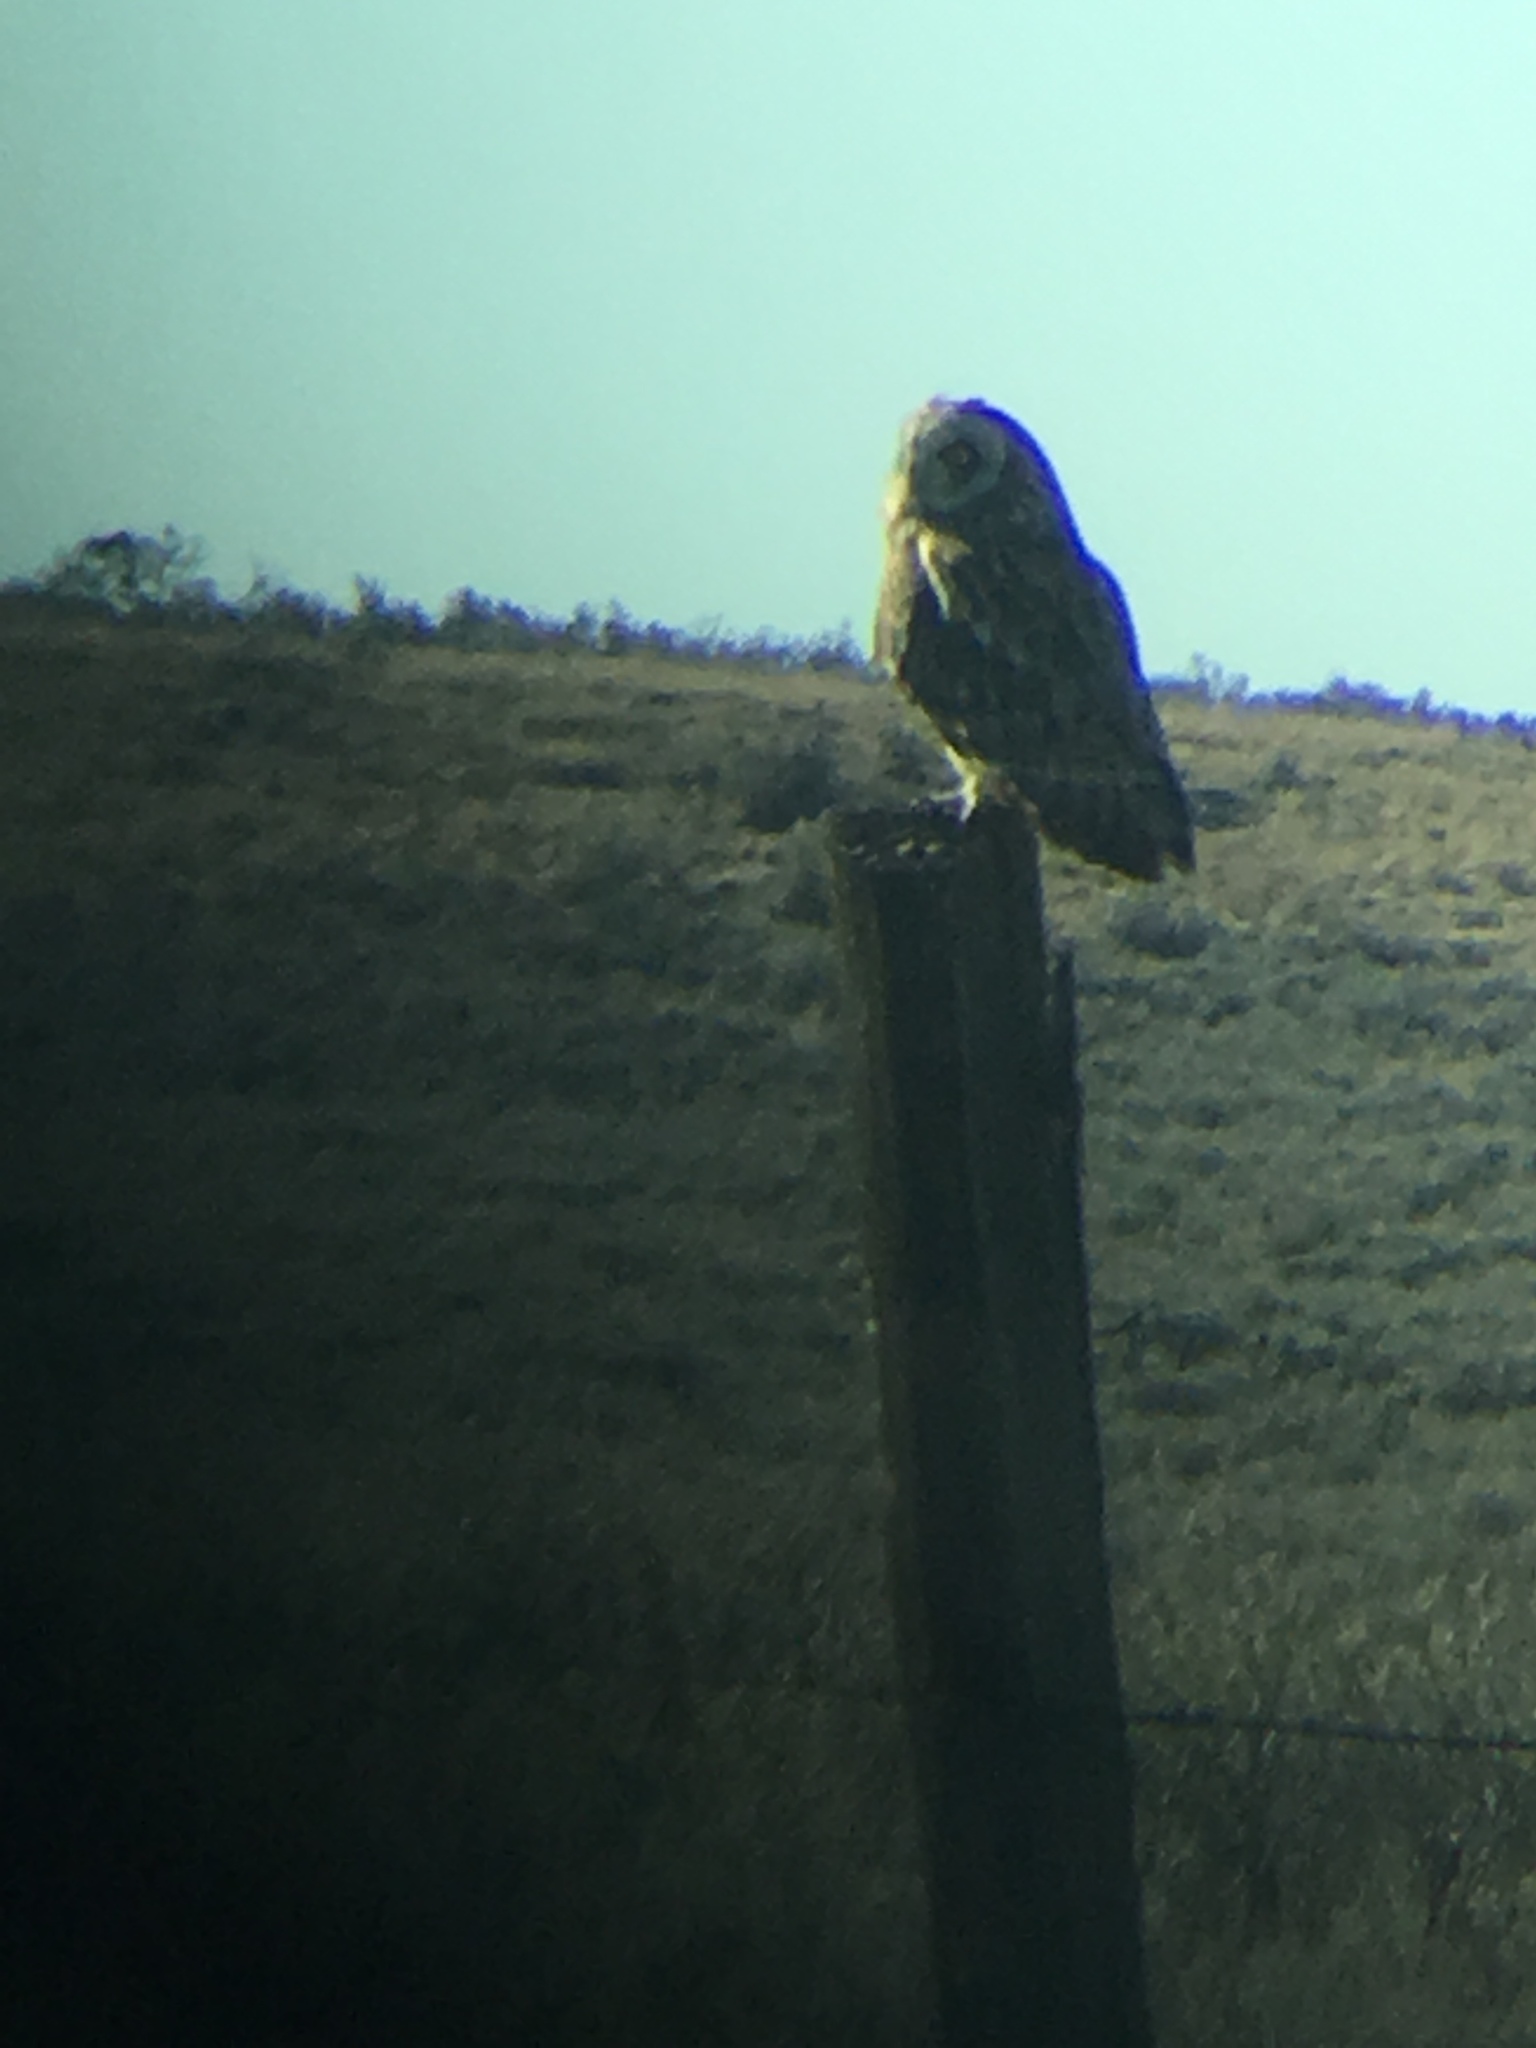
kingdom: Animalia
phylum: Chordata
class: Aves
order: Strigiformes
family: Strigidae
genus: Asio
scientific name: Asio flammeus
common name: Short-eared owl
